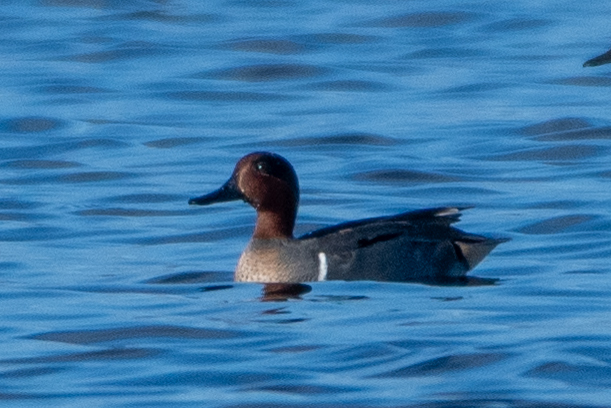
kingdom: Animalia
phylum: Chordata
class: Aves
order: Anseriformes
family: Anatidae
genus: Anas
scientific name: Anas crecca
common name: Eurasian teal
